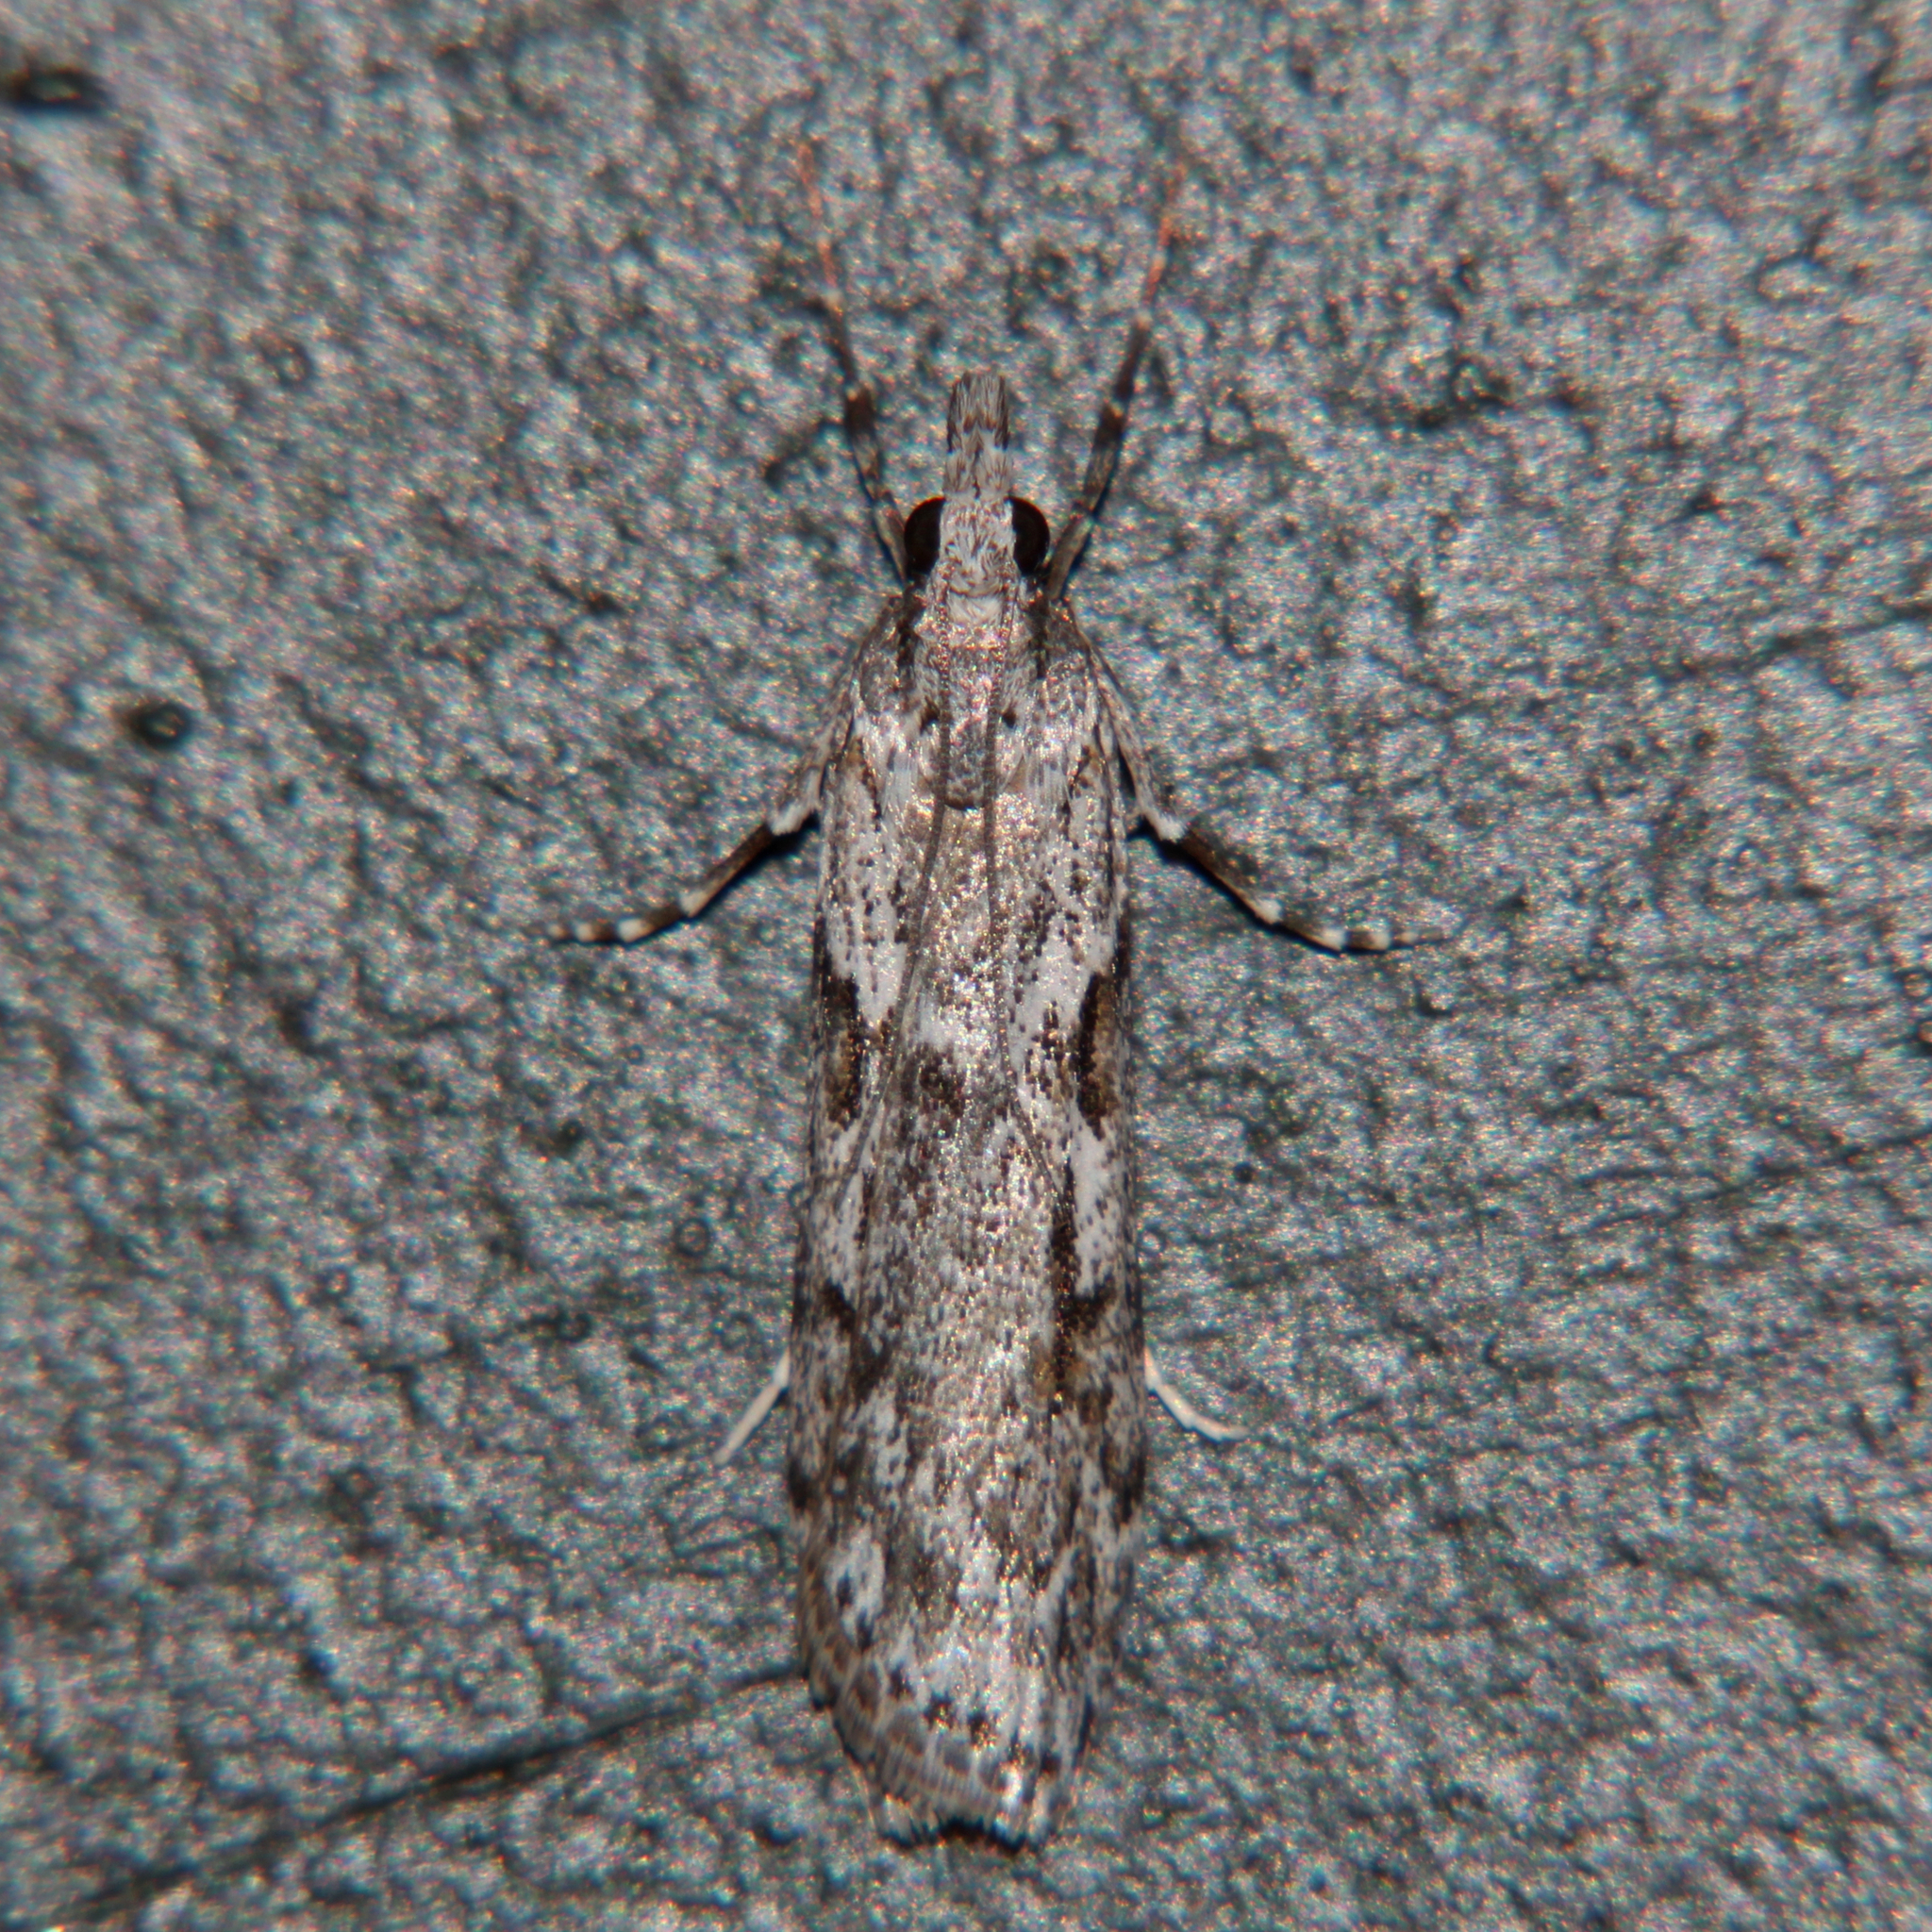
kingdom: Animalia
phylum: Arthropoda
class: Insecta
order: Lepidoptera
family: Crambidae
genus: Scoparia
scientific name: Scoparia halopis
